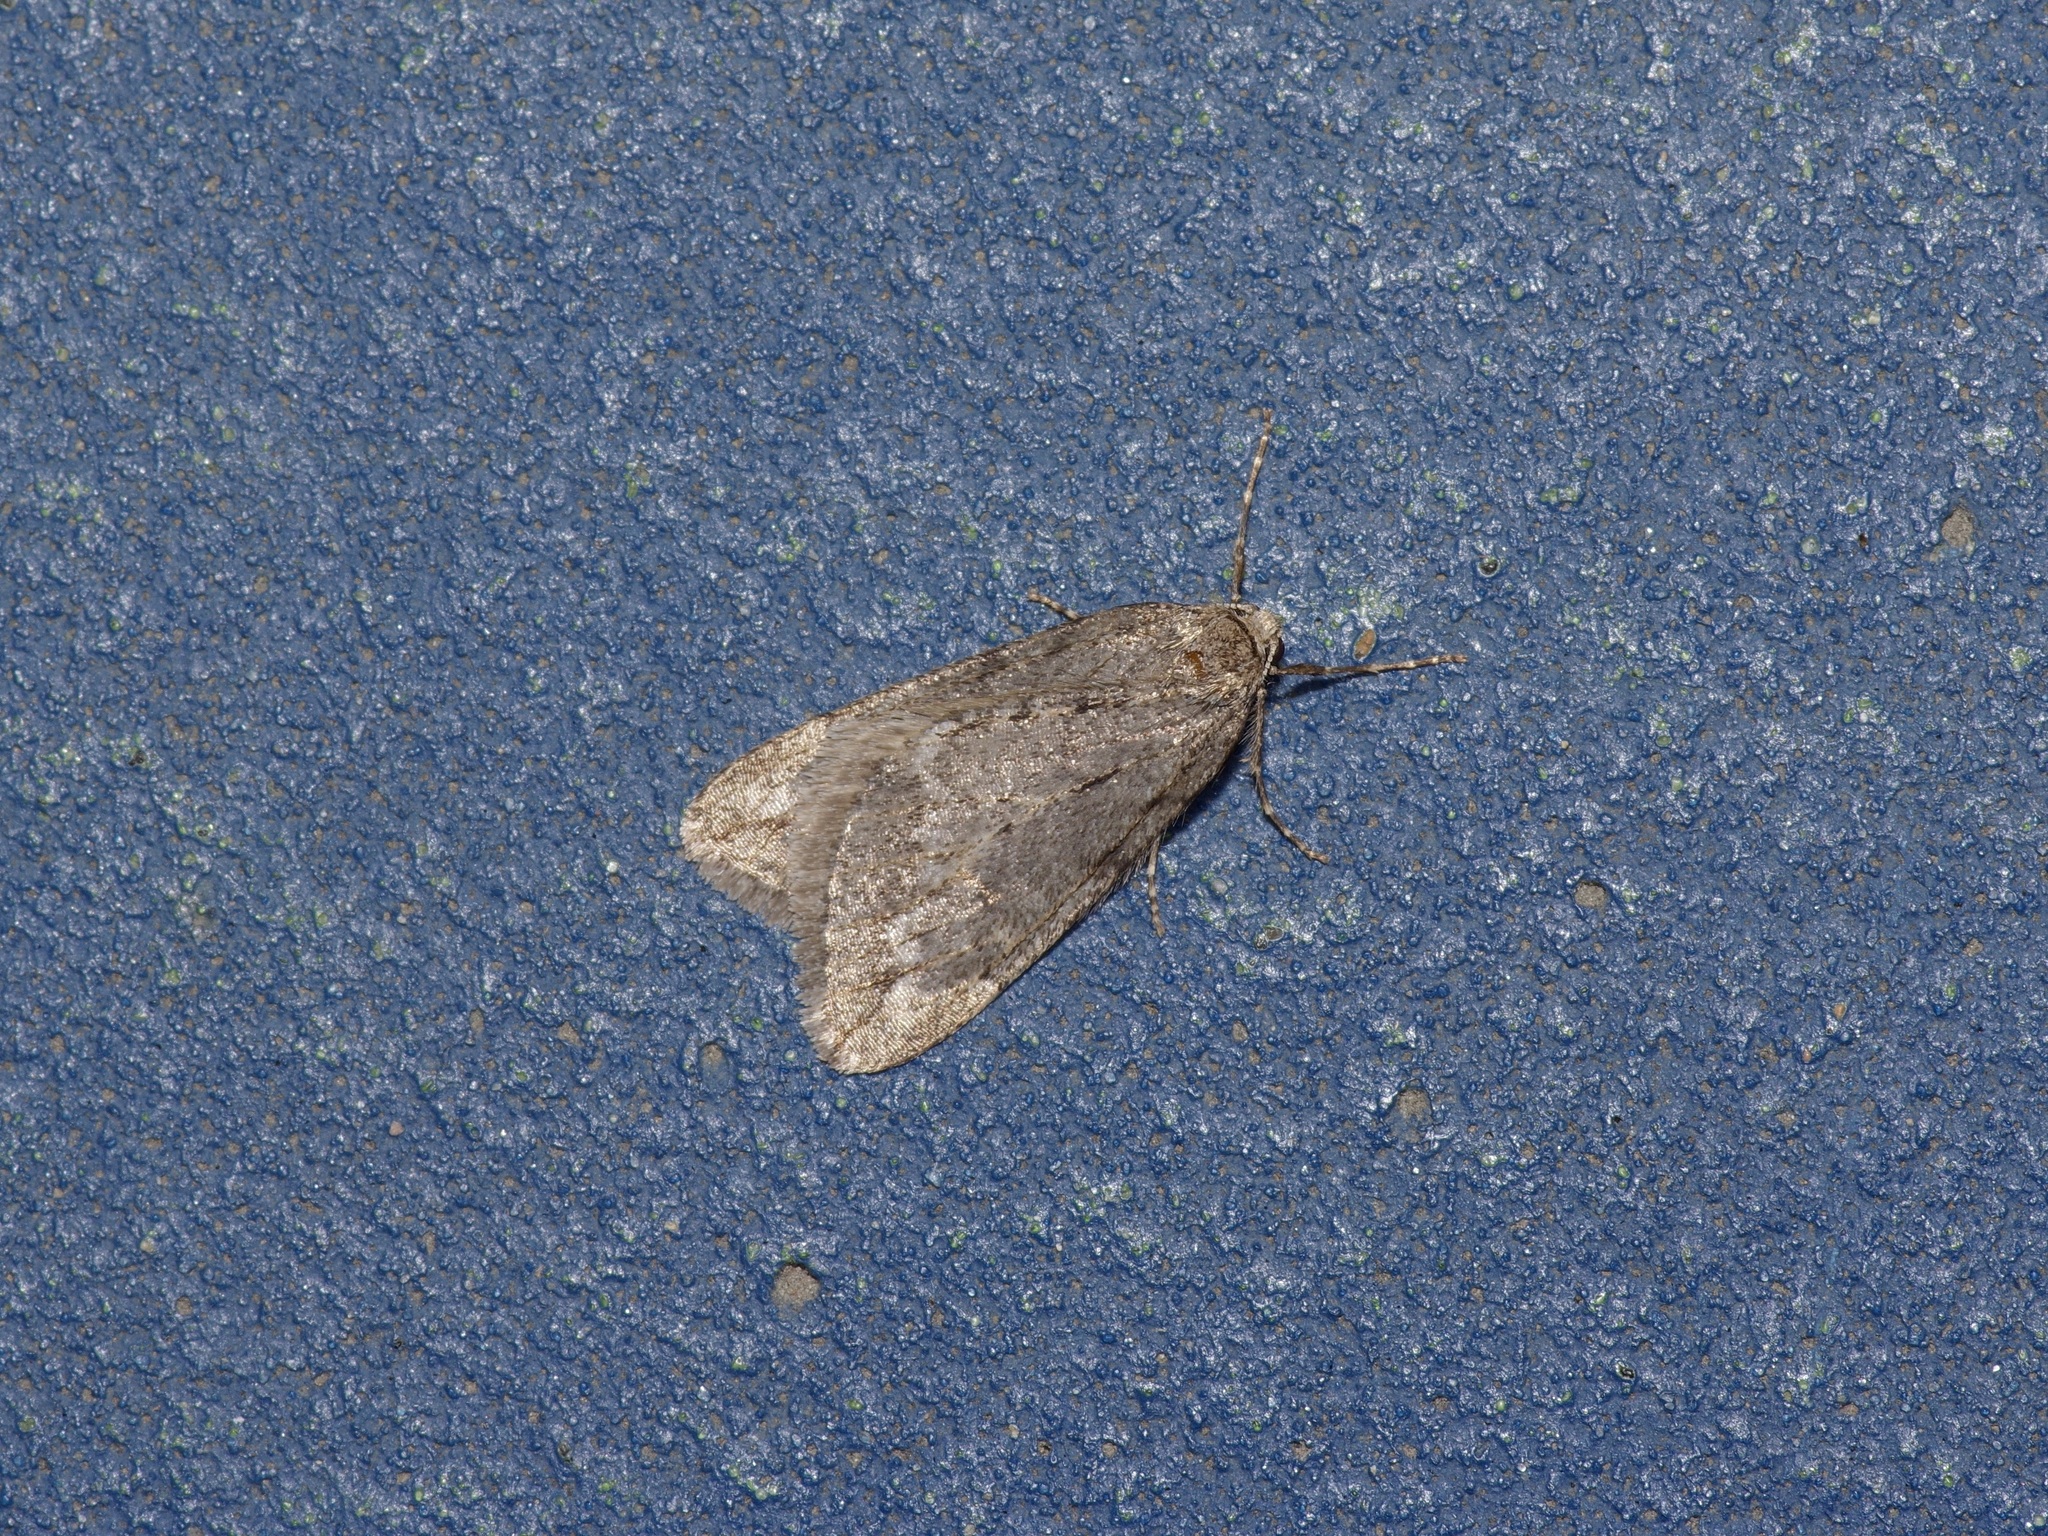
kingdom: Animalia
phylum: Arthropoda
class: Insecta
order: Lepidoptera
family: Geometridae
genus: Paleacrita
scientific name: Paleacrita vernata
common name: Spring cankerworm
